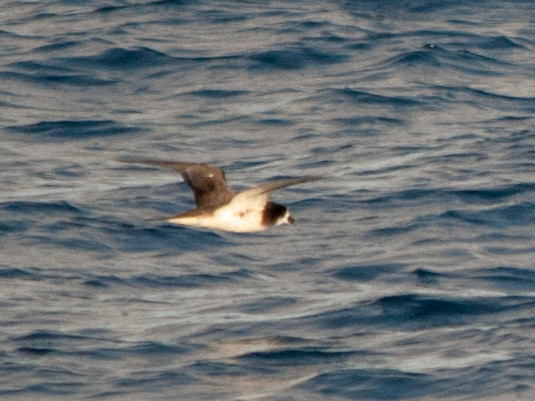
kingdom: Animalia
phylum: Chordata
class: Aves
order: Procellariiformes
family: Procellariidae
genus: Pterodroma
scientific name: Pterodroma phaeopygia
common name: Galapagos petrel
